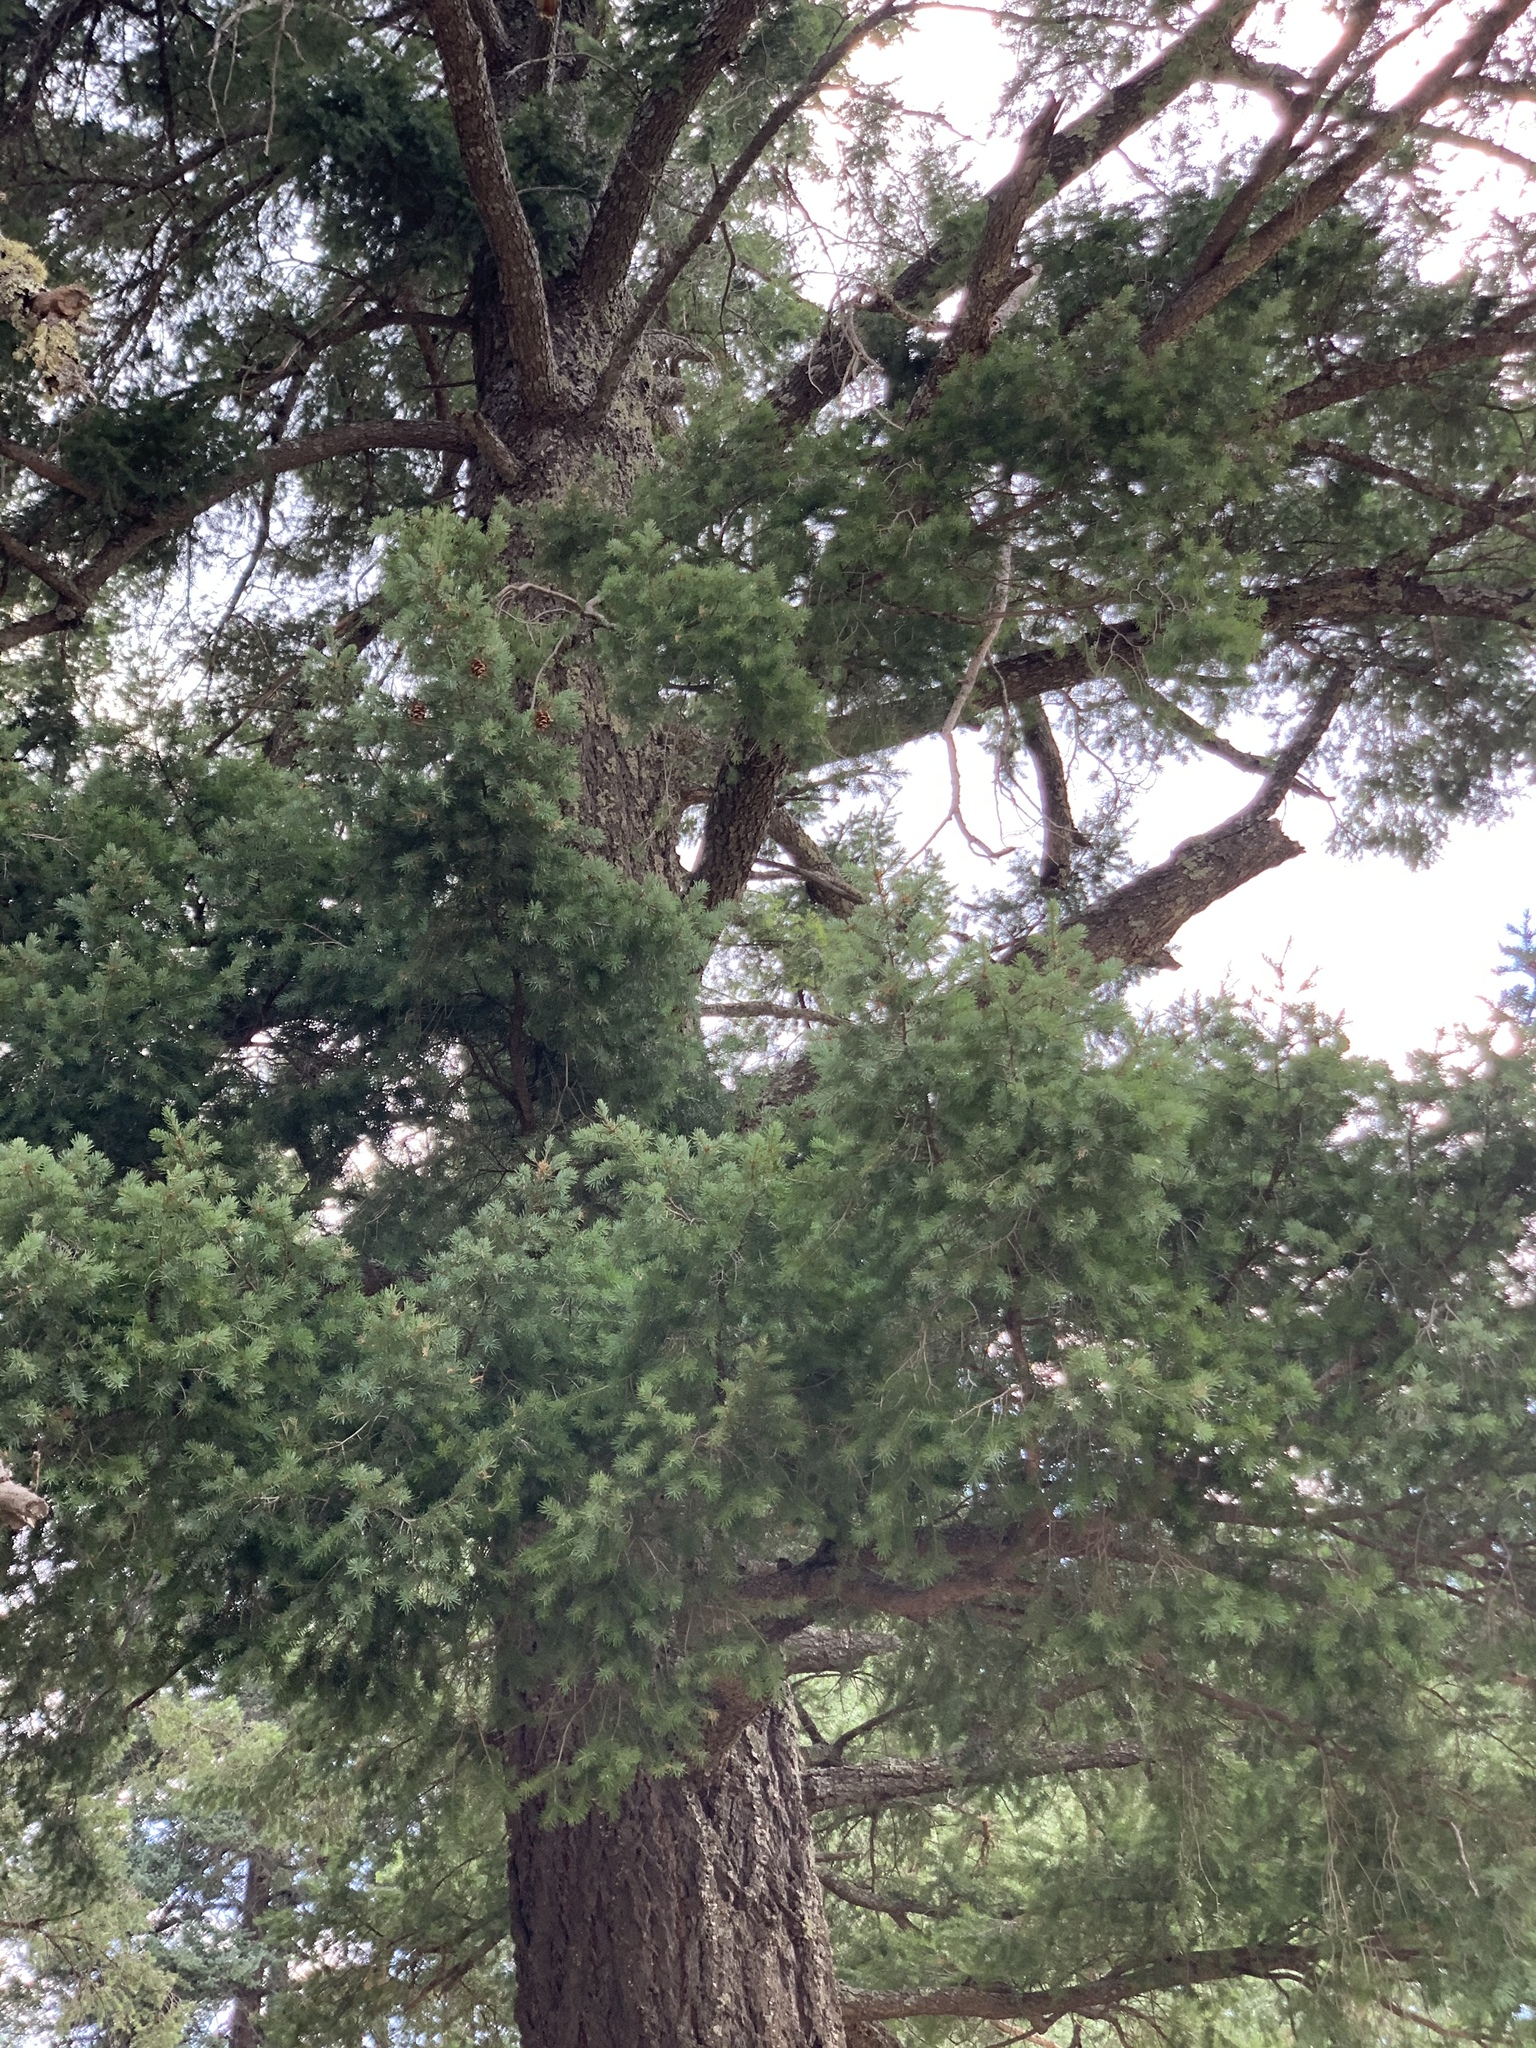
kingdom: Plantae
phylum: Tracheophyta
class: Pinopsida
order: Pinales
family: Pinaceae
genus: Pseudotsuga
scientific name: Pseudotsuga menziesii
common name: Douglas fir
